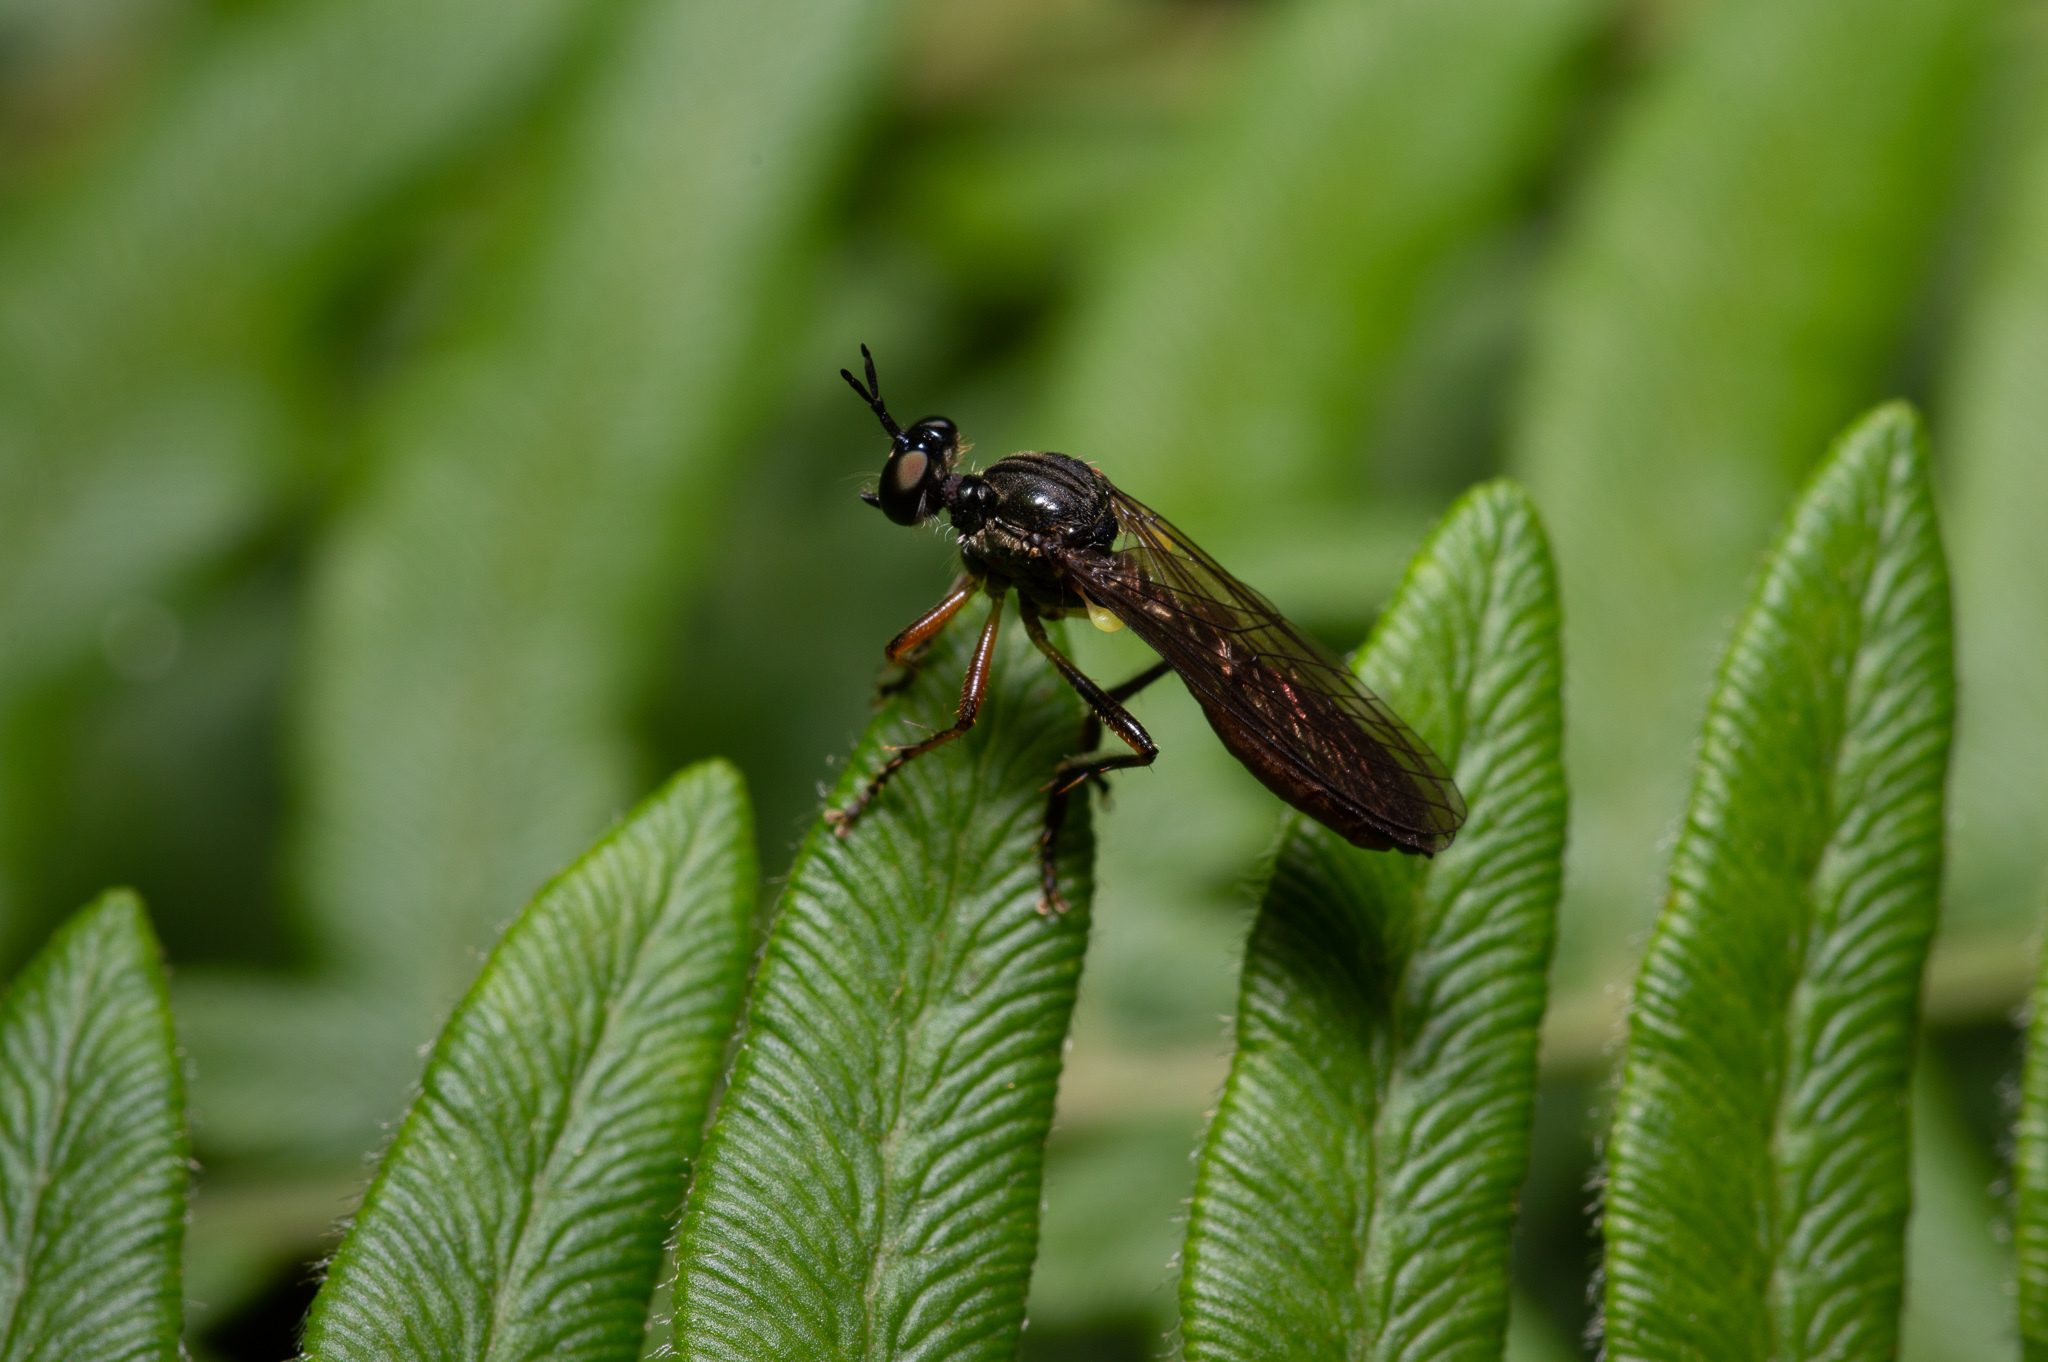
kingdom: Animalia
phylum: Arthropoda
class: Insecta
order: Diptera
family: Asilidae
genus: Dioctria
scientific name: Dioctria hyalipennis
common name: Stripe-legged robberfly
